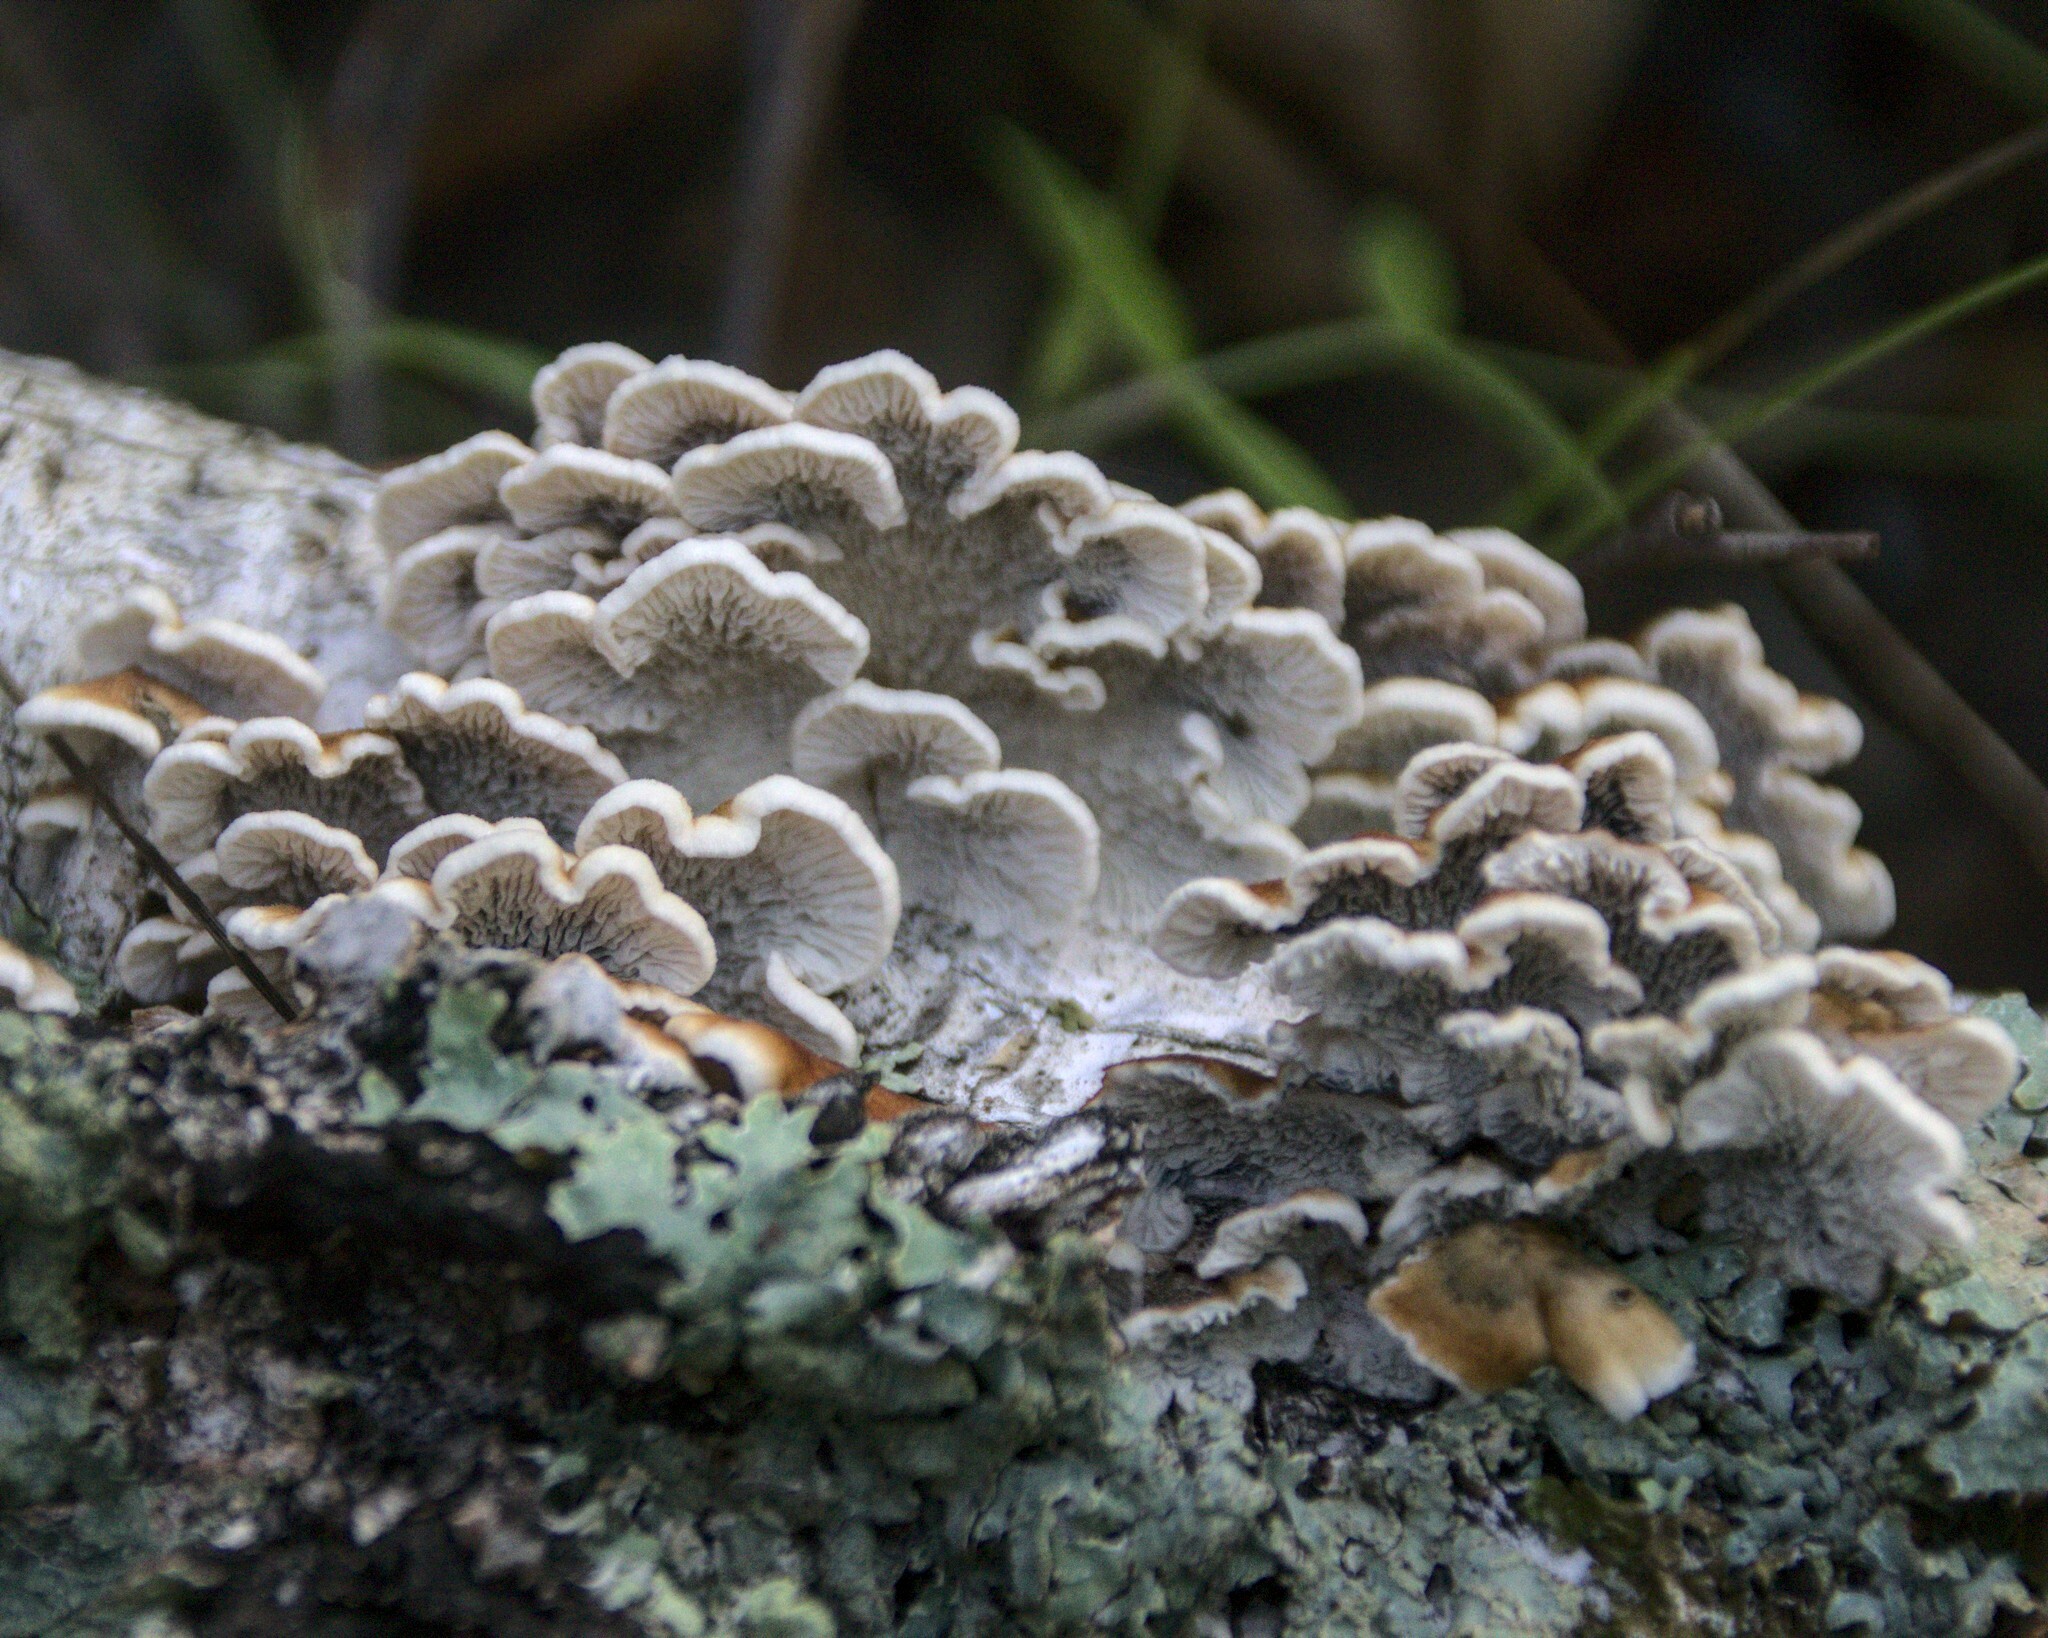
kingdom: Fungi
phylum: Basidiomycota
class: Agaricomycetes
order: Amylocorticiales
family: Amylocorticiaceae
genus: Plicaturopsis
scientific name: Plicaturopsis crispa
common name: Crimped gill
